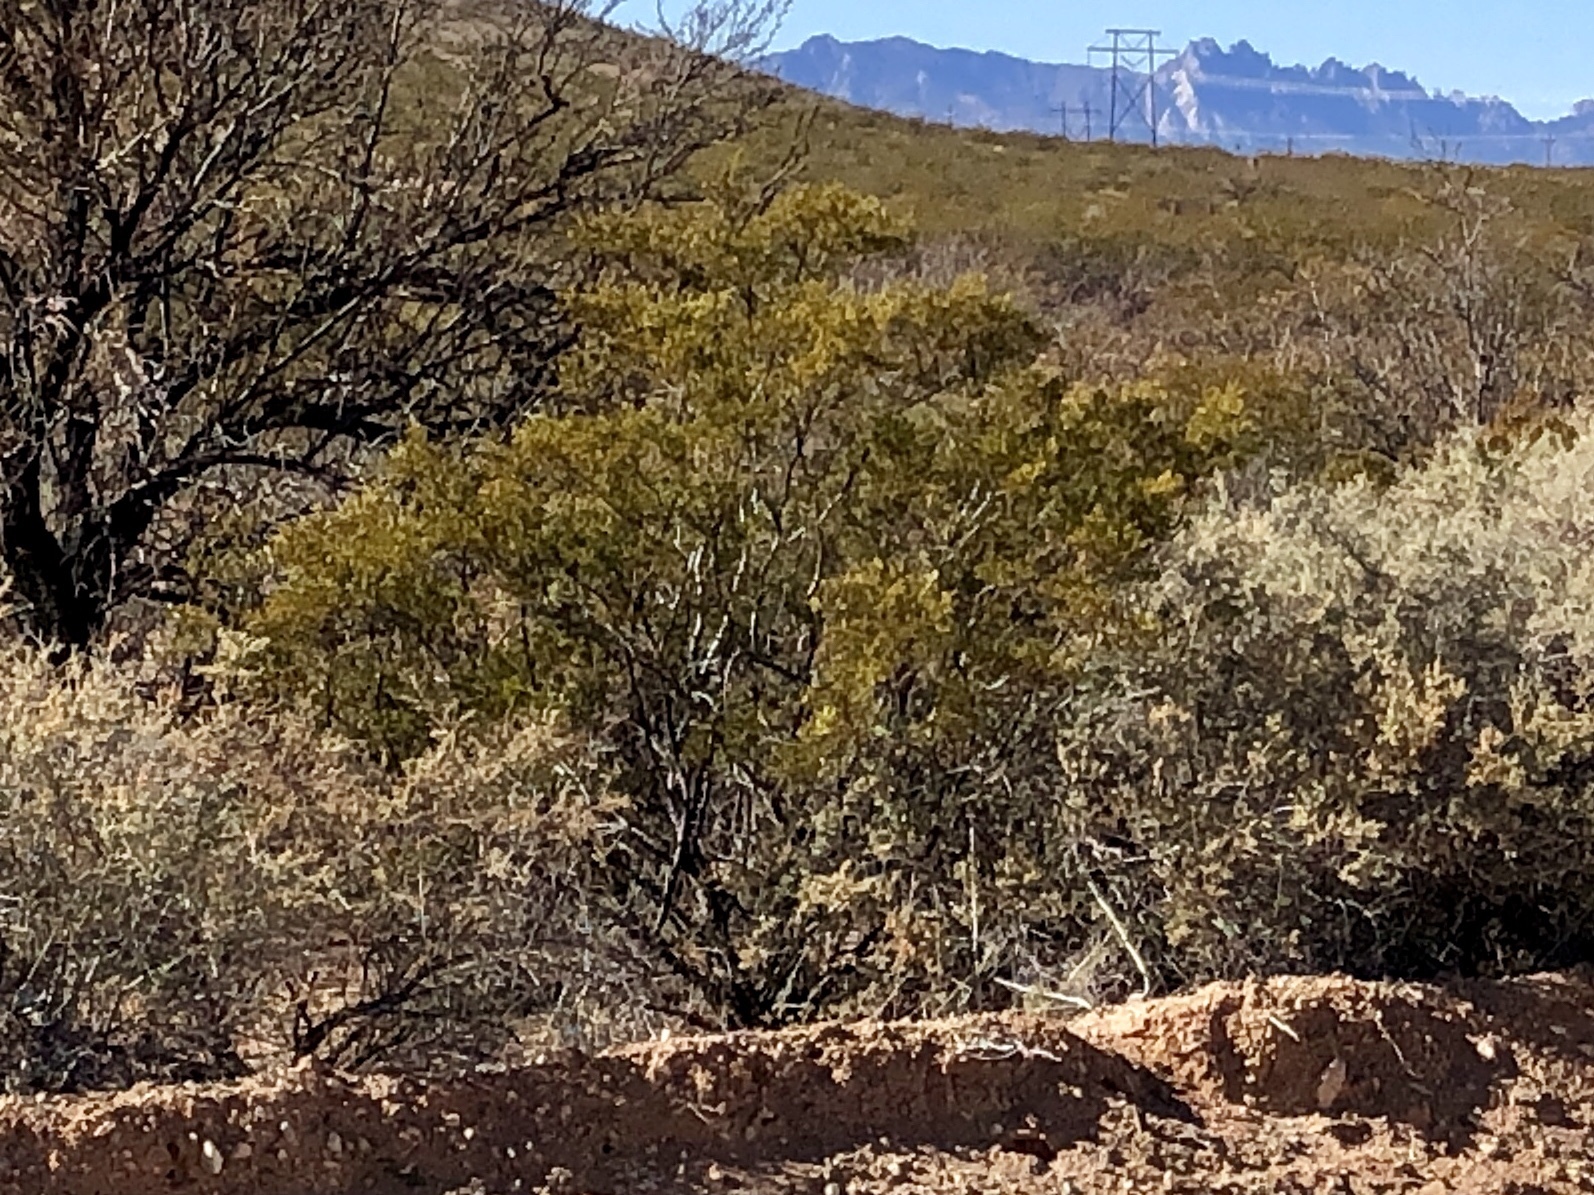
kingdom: Plantae
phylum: Tracheophyta
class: Magnoliopsida
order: Zygophyllales
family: Zygophyllaceae
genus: Larrea
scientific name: Larrea tridentata
